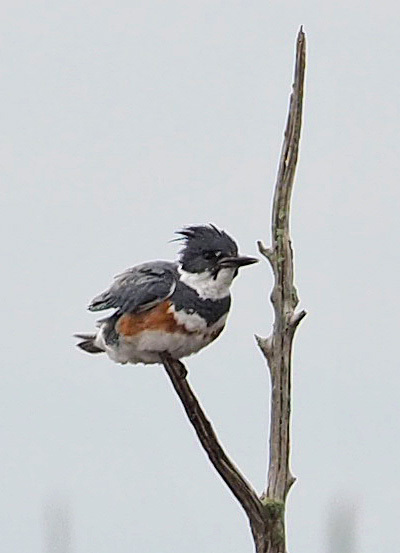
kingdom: Animalia
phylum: Chordata
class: Aves
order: Coraciiformes
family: Alcedinidae
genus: Megaceryle
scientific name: Megaceryle alcyon
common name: Belted kingfisher
